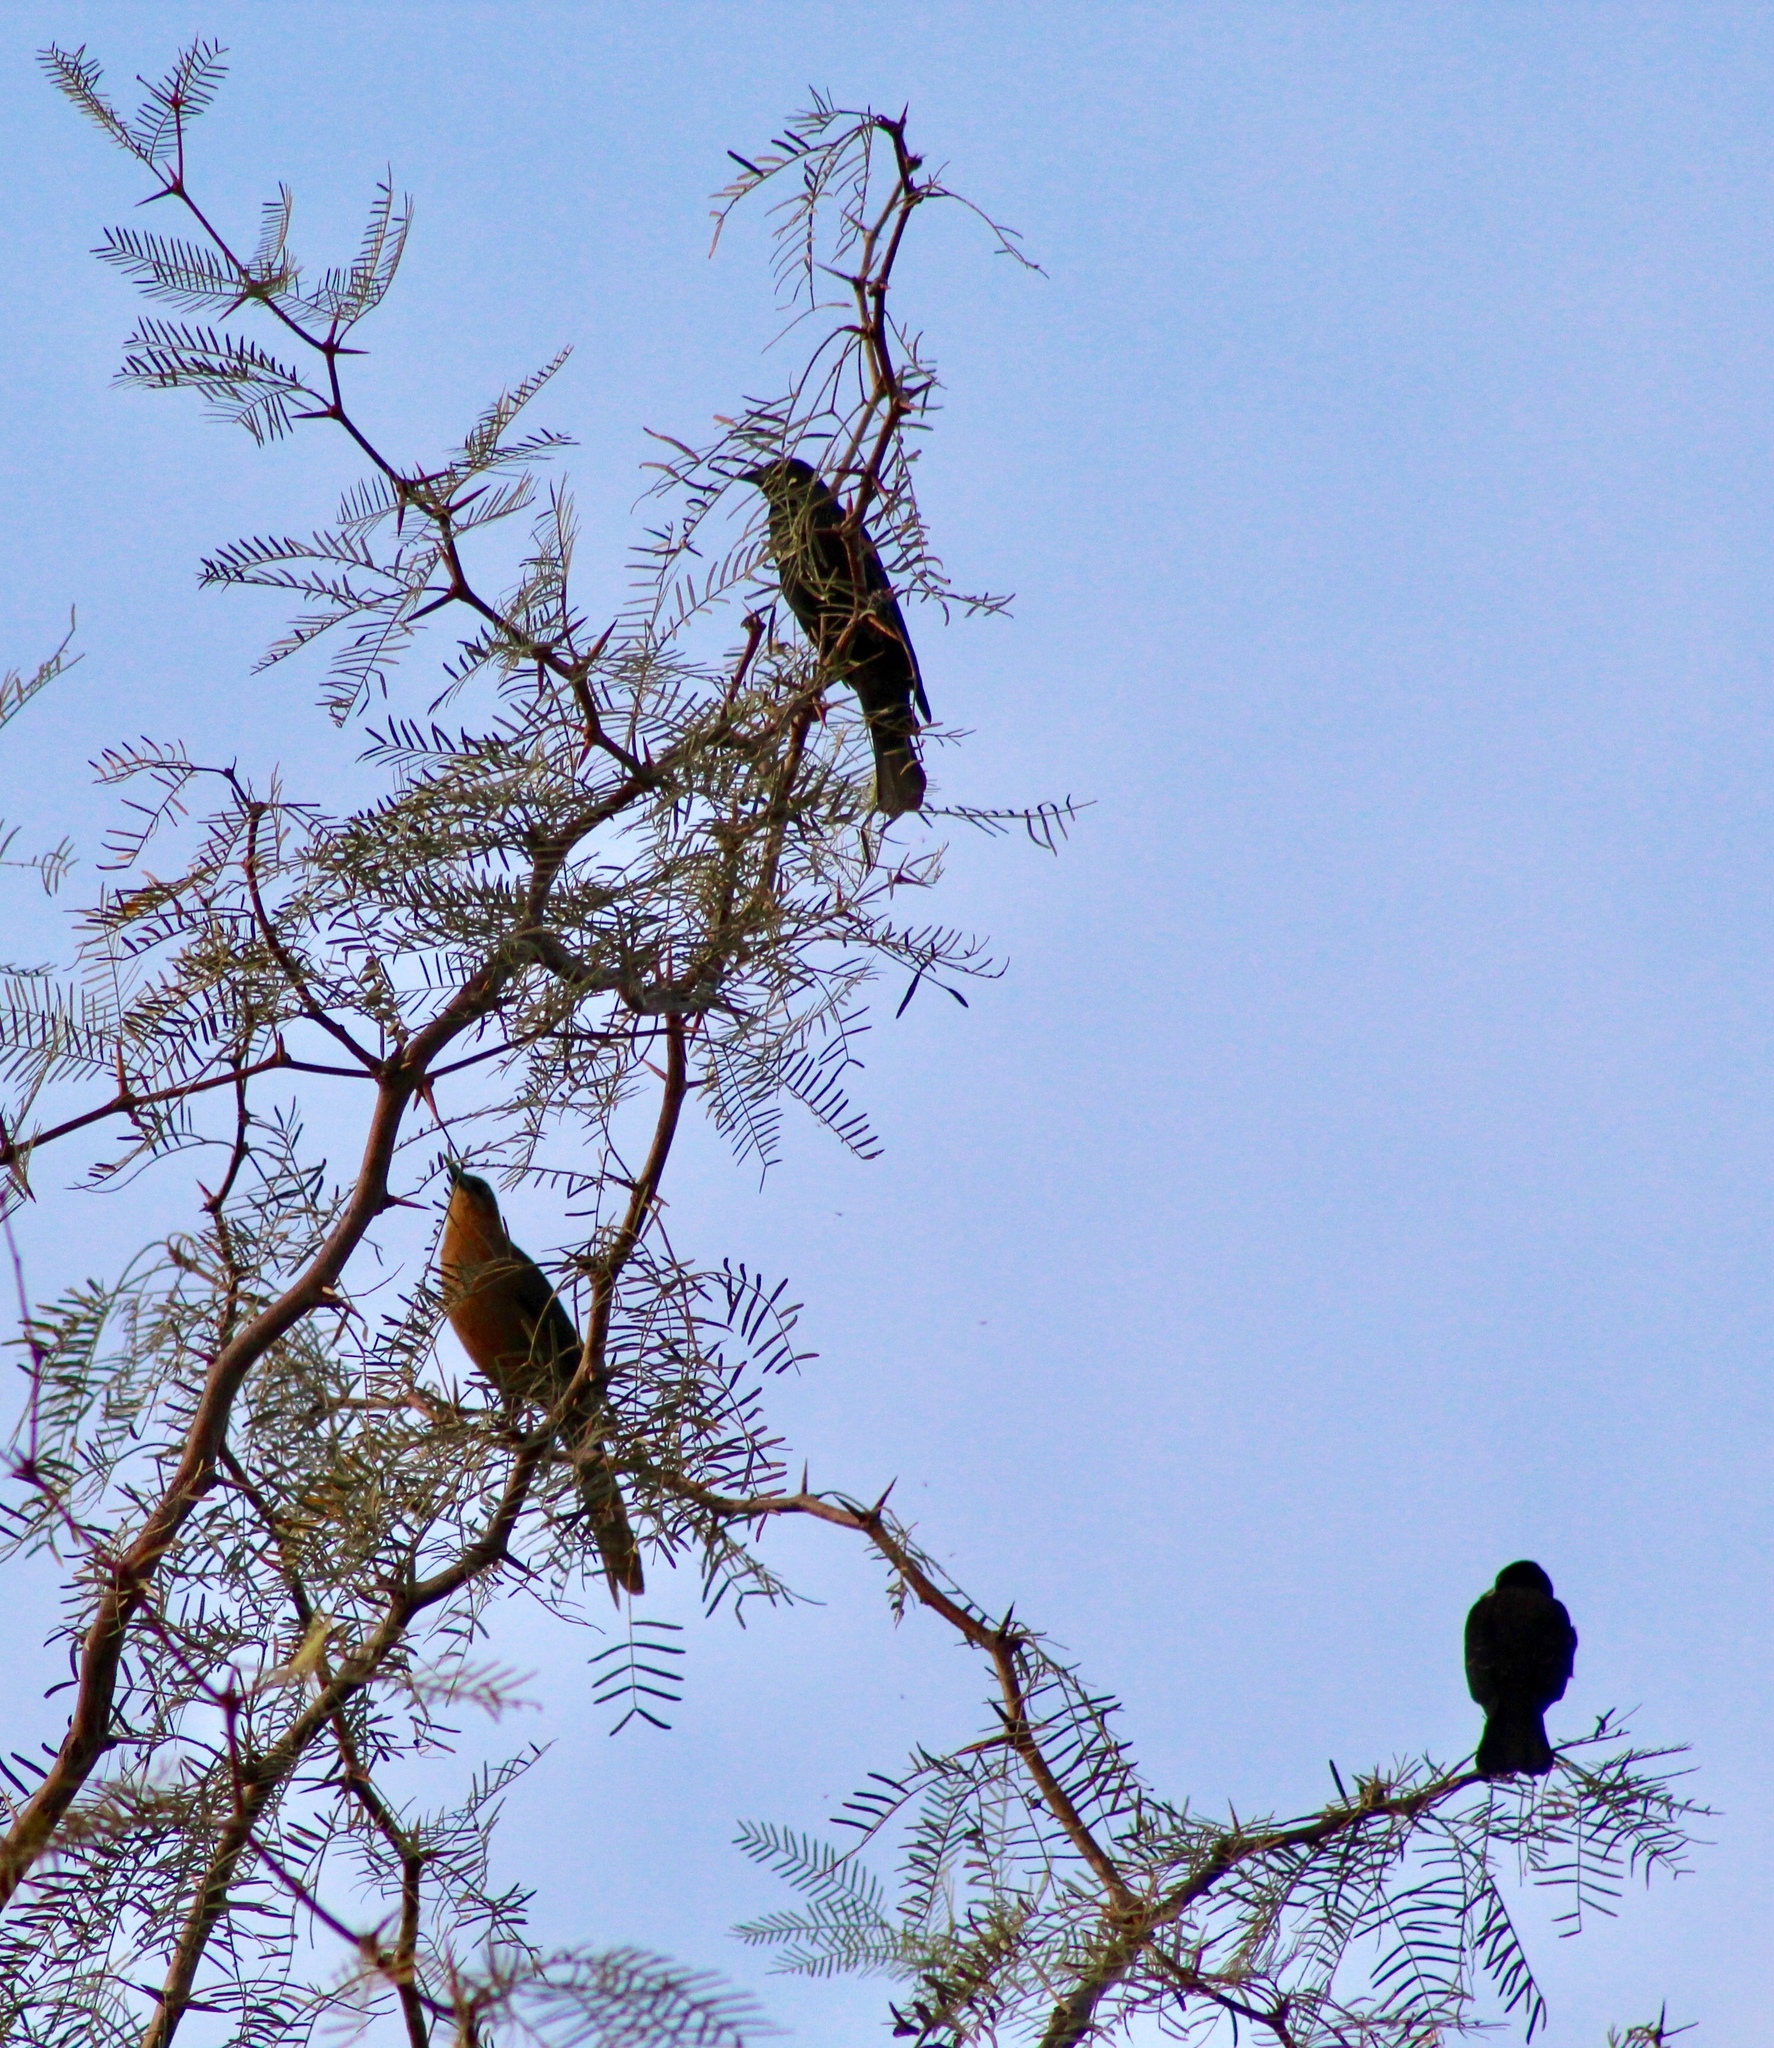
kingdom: Animalia
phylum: Chordata
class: Aves
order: Passeriformes
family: Icteridae
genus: Quiscalus
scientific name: Quiscalus mexicanus
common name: Great-tailed grackle
